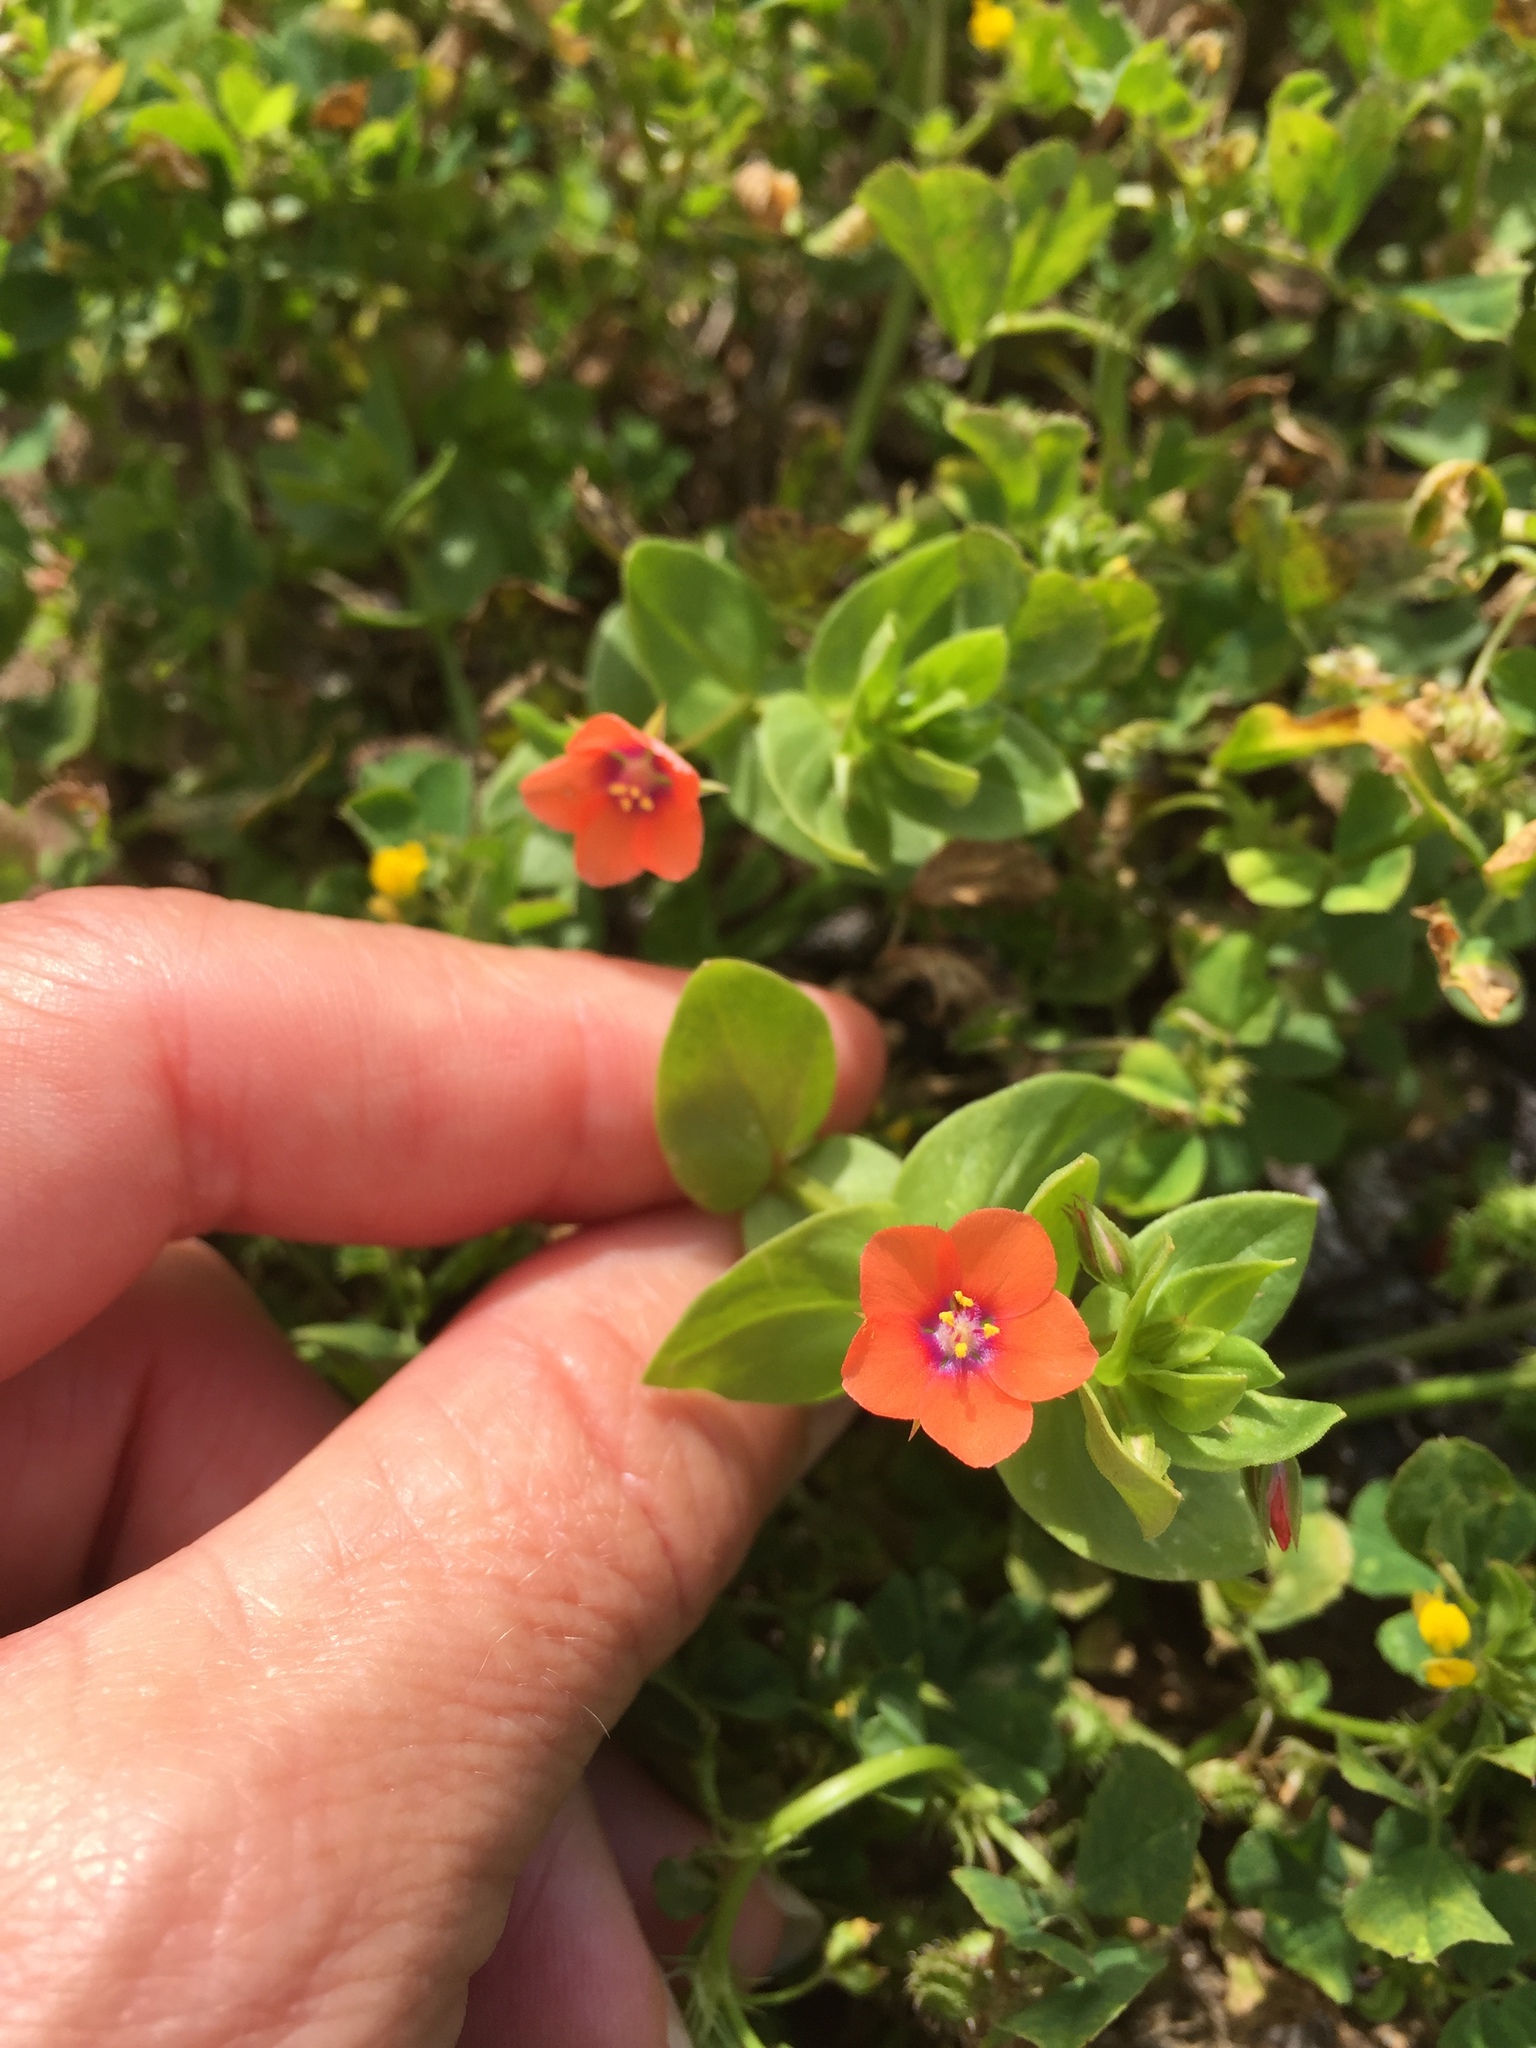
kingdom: Plantae
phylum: Tracheophyta
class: Magnoliopsida
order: Ericales
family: Primulaceae
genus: Lysimachia
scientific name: Lysimachia arvensis
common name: Scarlet pimpernel
